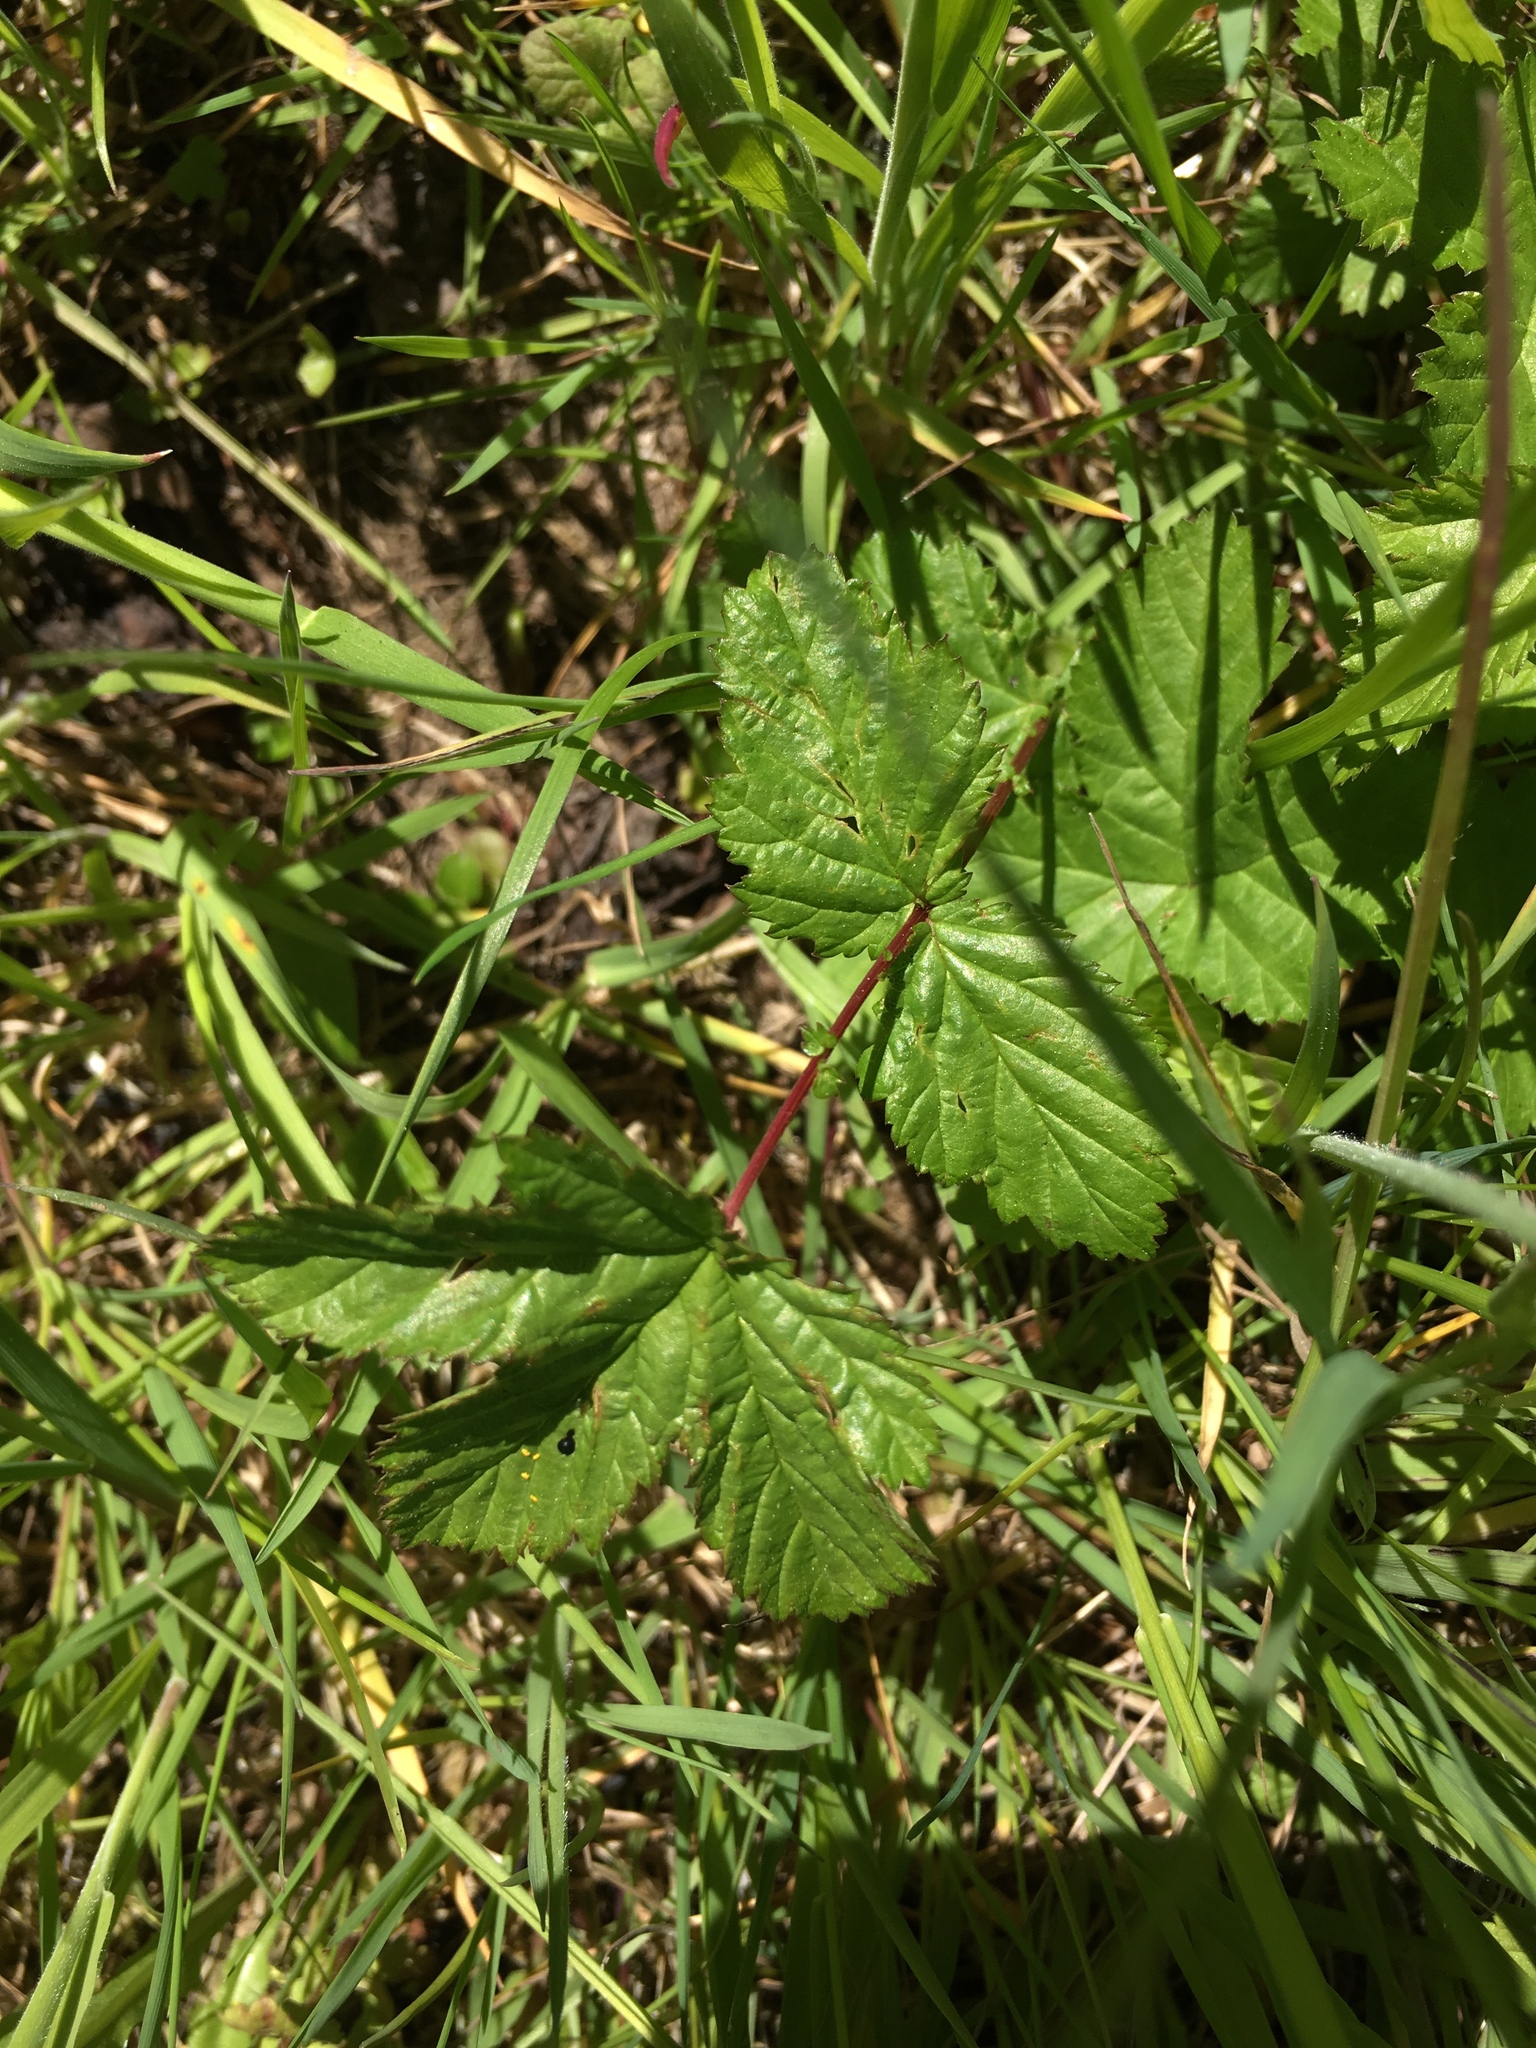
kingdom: Plantae
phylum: Tracheophyta
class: Magnoliopsida
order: Rosales
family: Rosaceae
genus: Filipendula
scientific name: Filipendula ulmaria
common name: Meadowsweet
